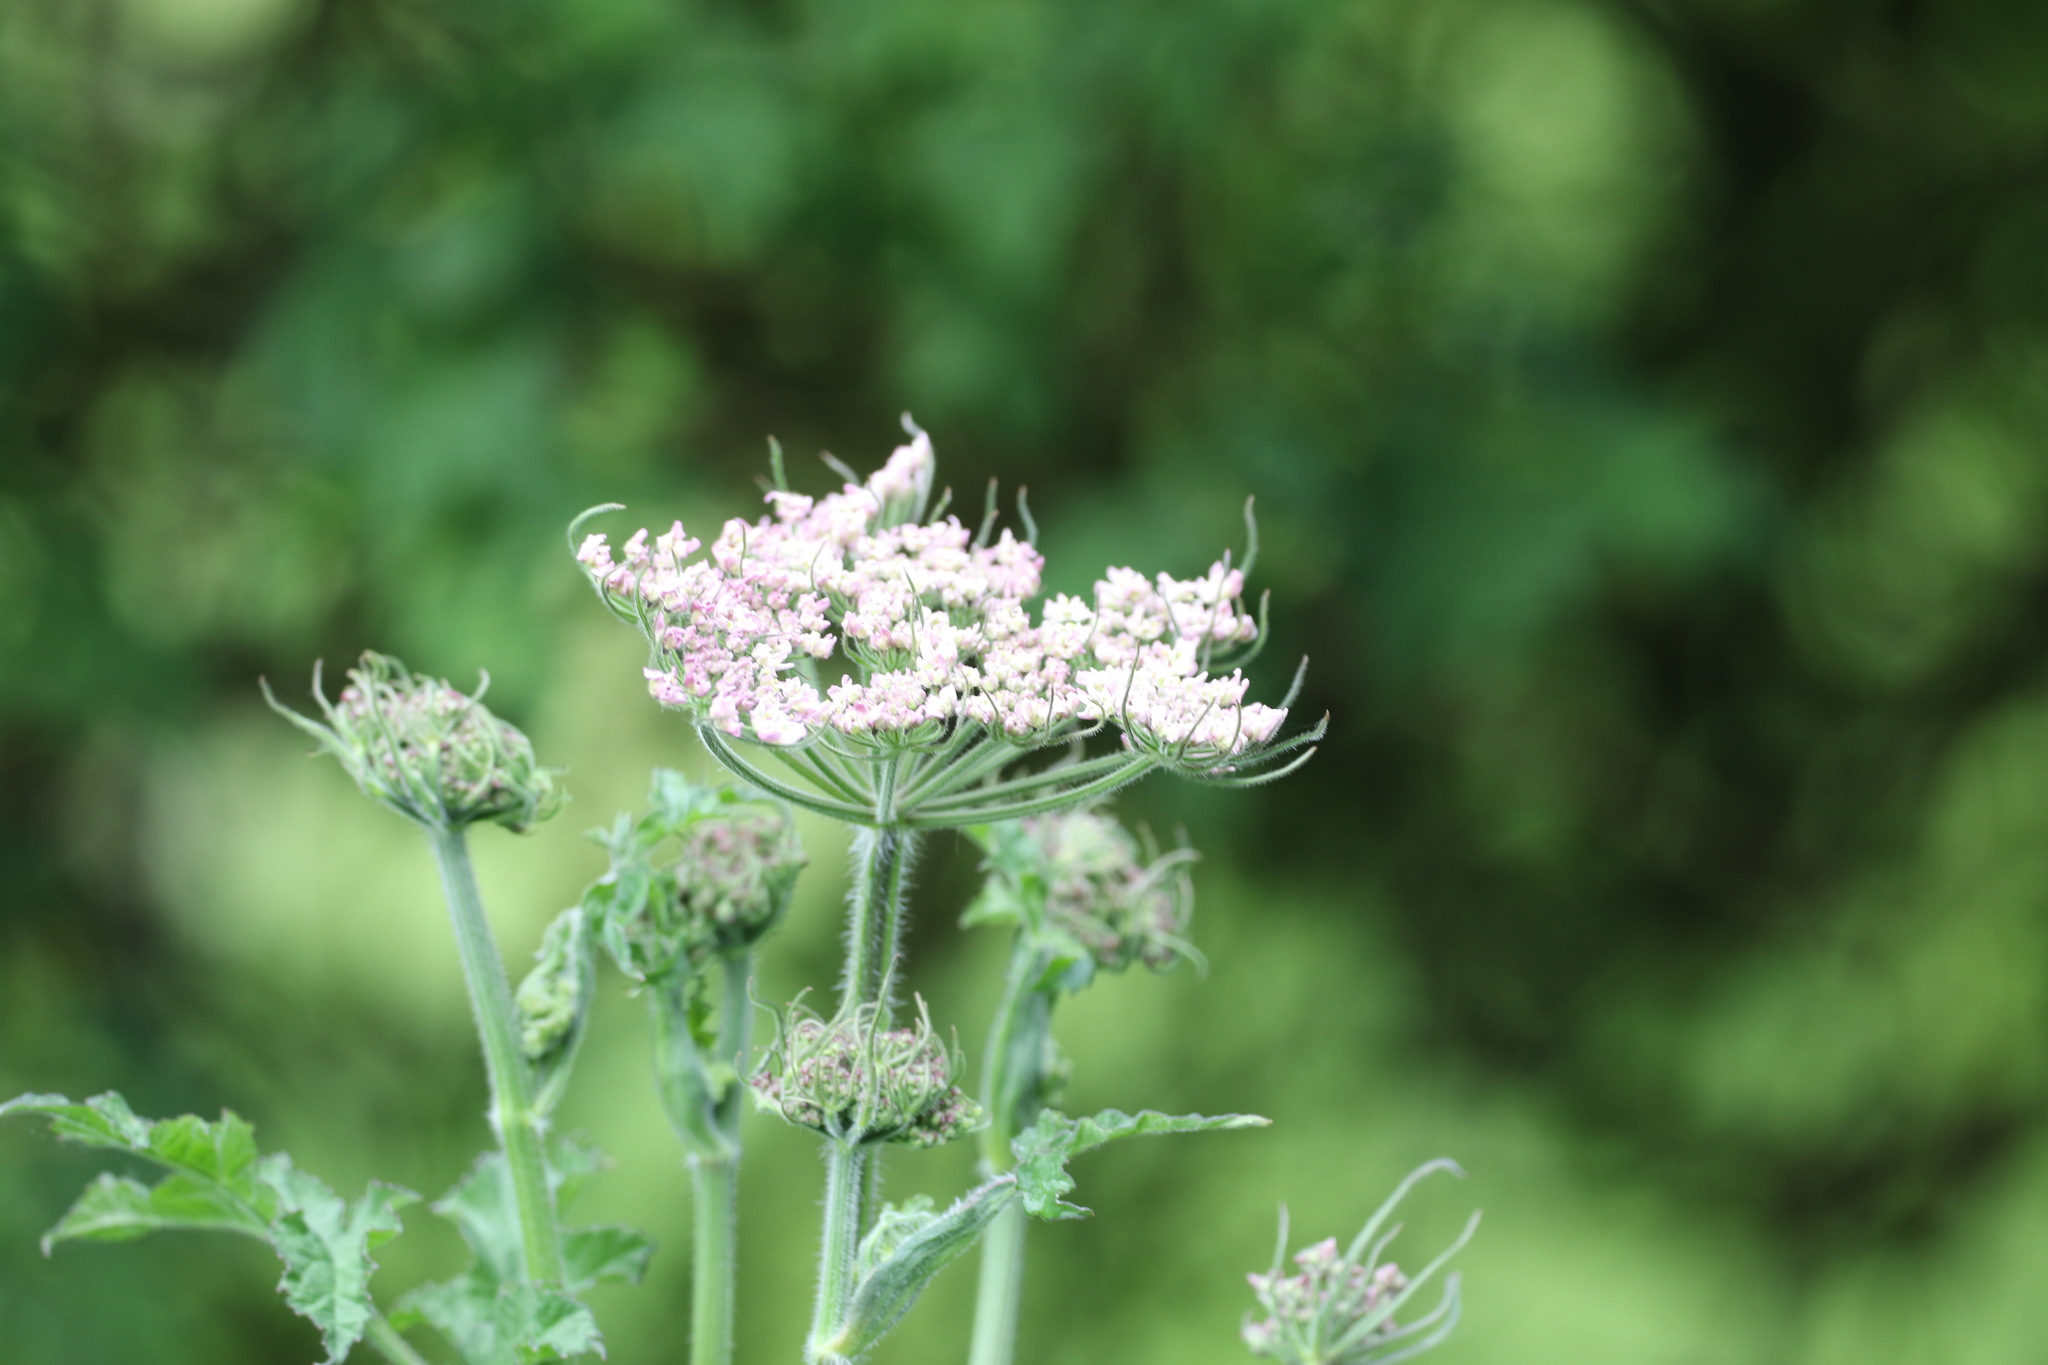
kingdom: Plantae
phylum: Tracheophyta
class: Magnoliopsida
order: Apiales
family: Apiaceae
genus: Heracleum
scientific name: Heracleum sphondylium
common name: Hogweed
